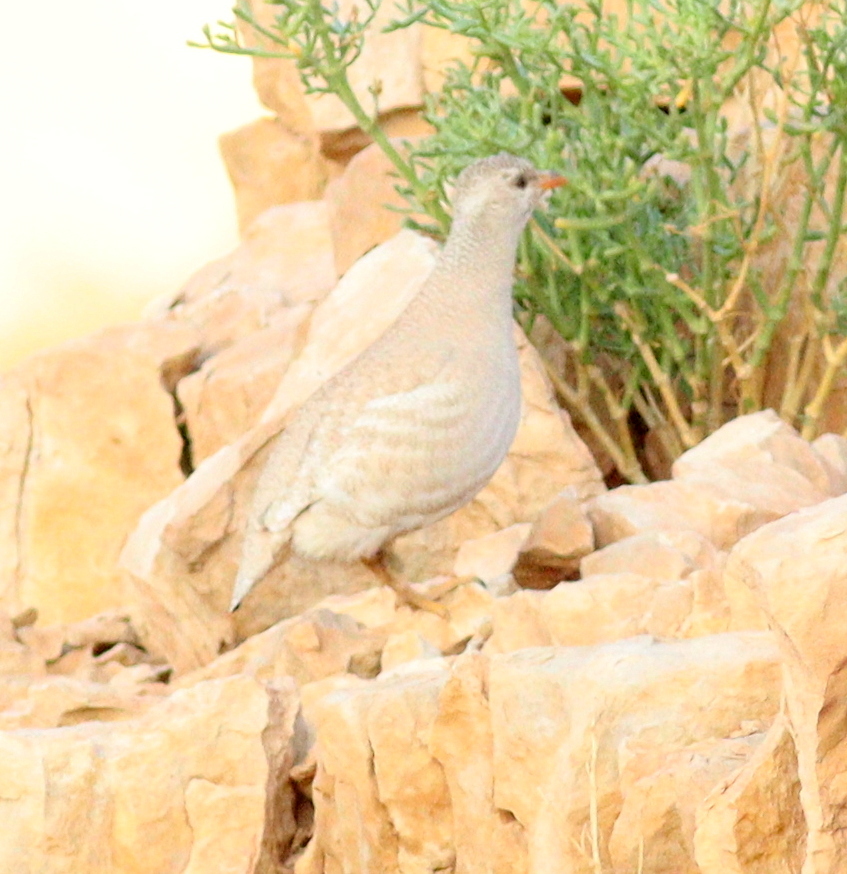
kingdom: Animalia
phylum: Chordata
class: Aves
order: Galliformes
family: Phasianidae
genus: Ammoperdix
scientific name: Ammoperdix heyi
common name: Sand partridge
